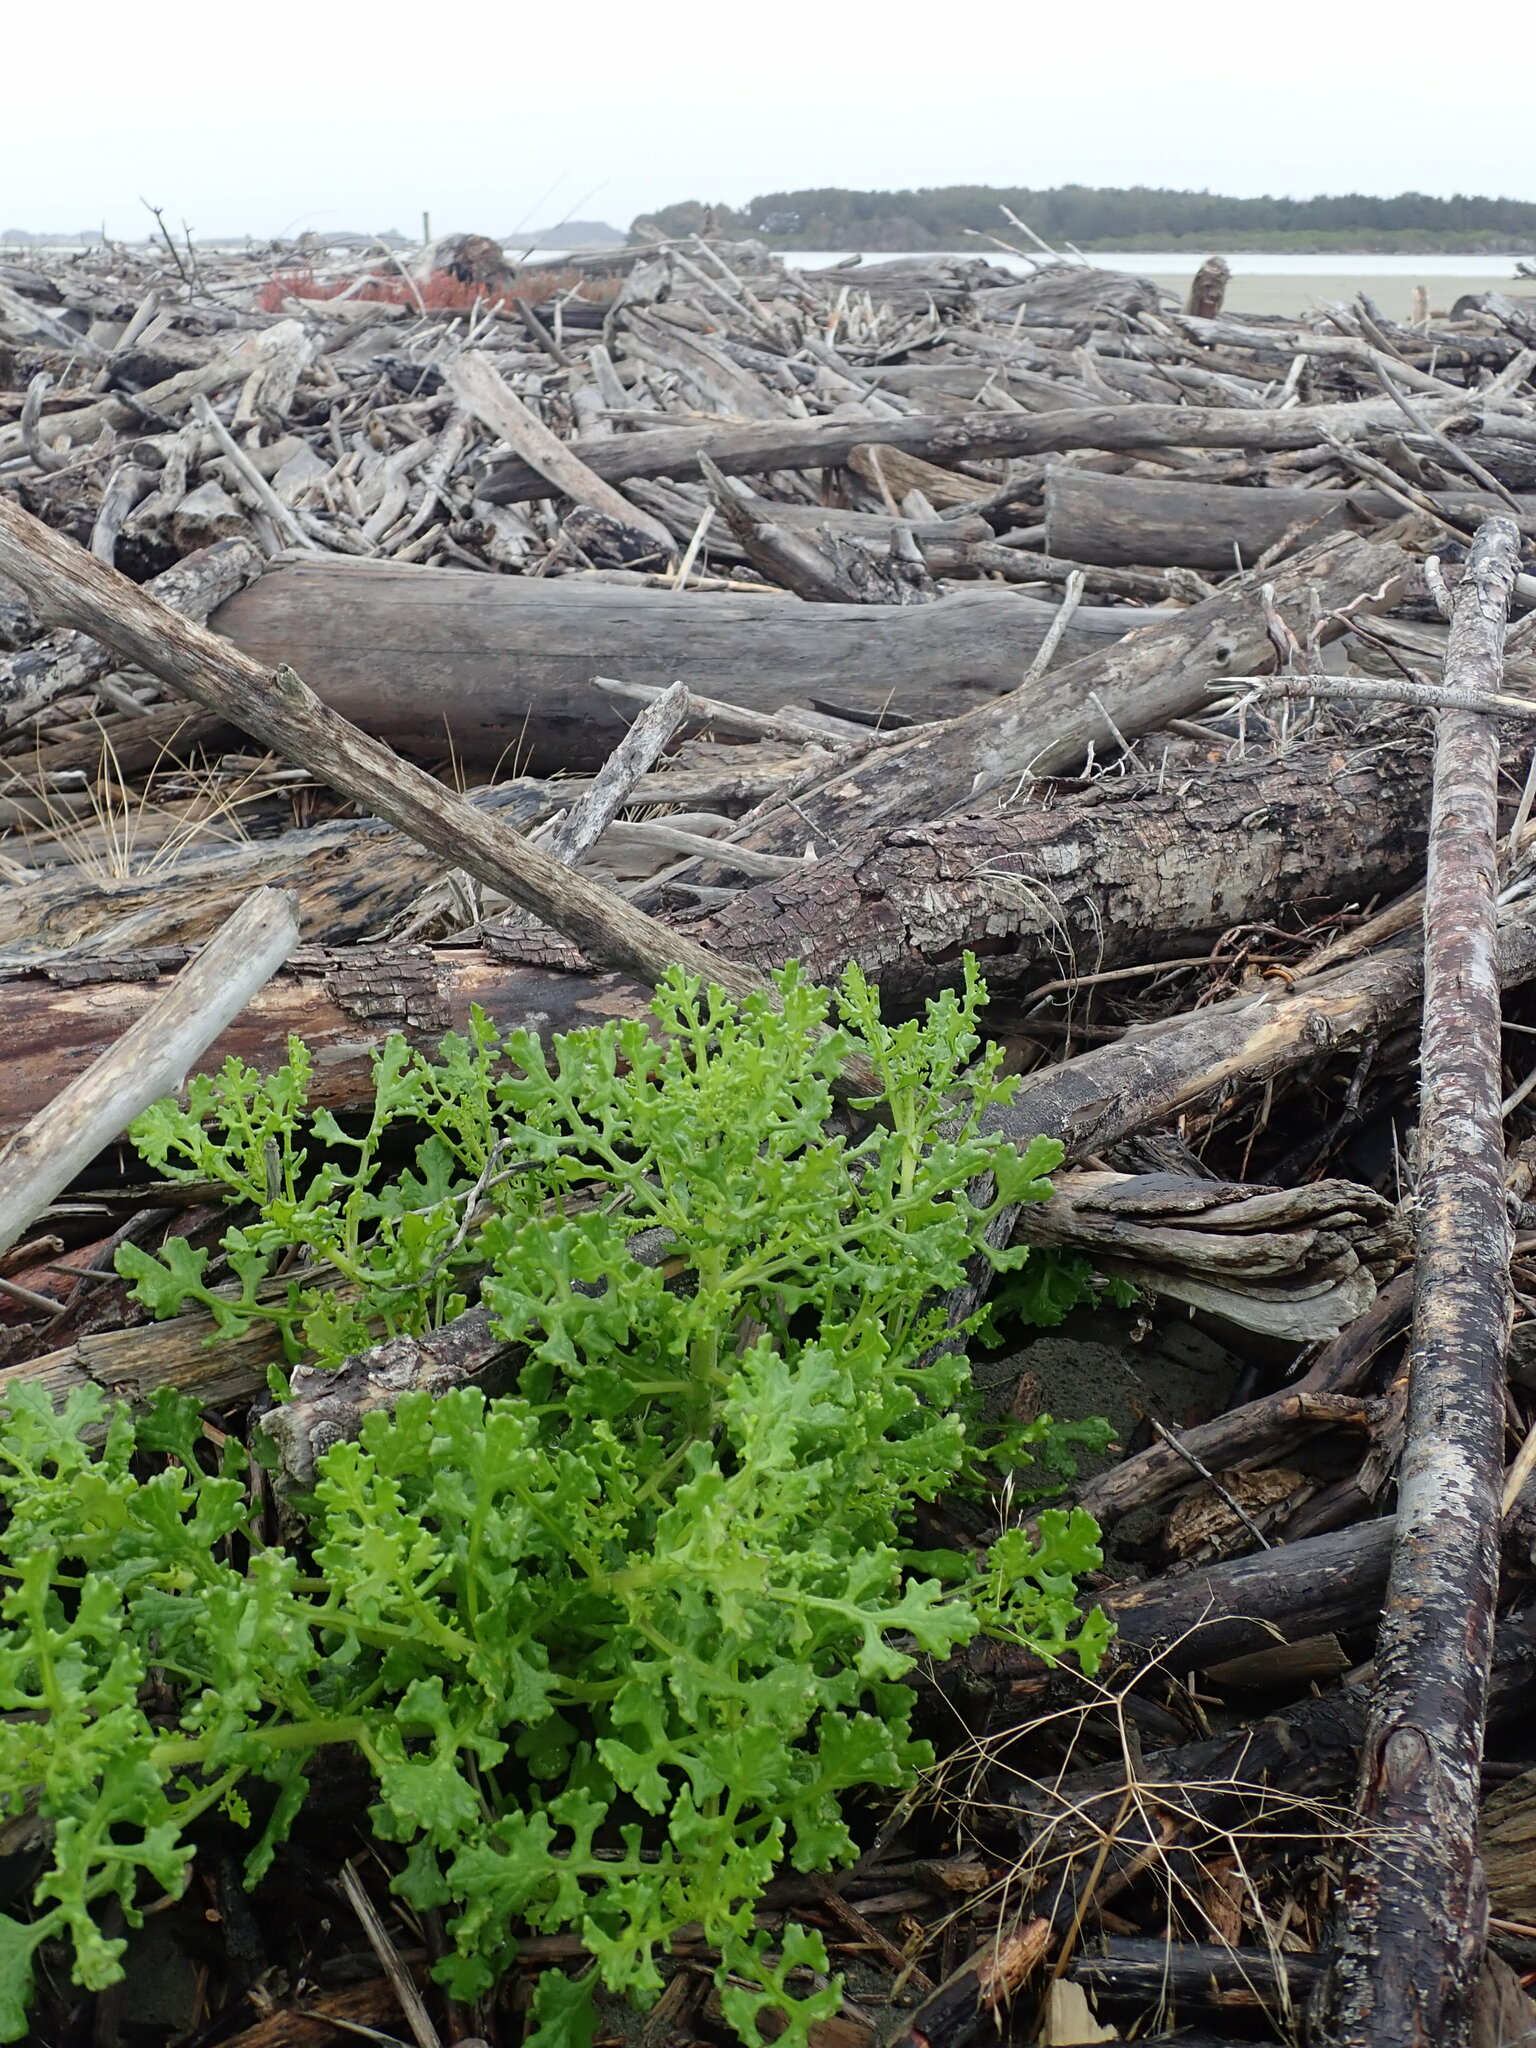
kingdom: Plantae
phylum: Tracheophyta
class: Magnoliopsida
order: Asterales
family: Asteraceae
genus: Senecio
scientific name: Senecio elegans
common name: Purple groundsel
